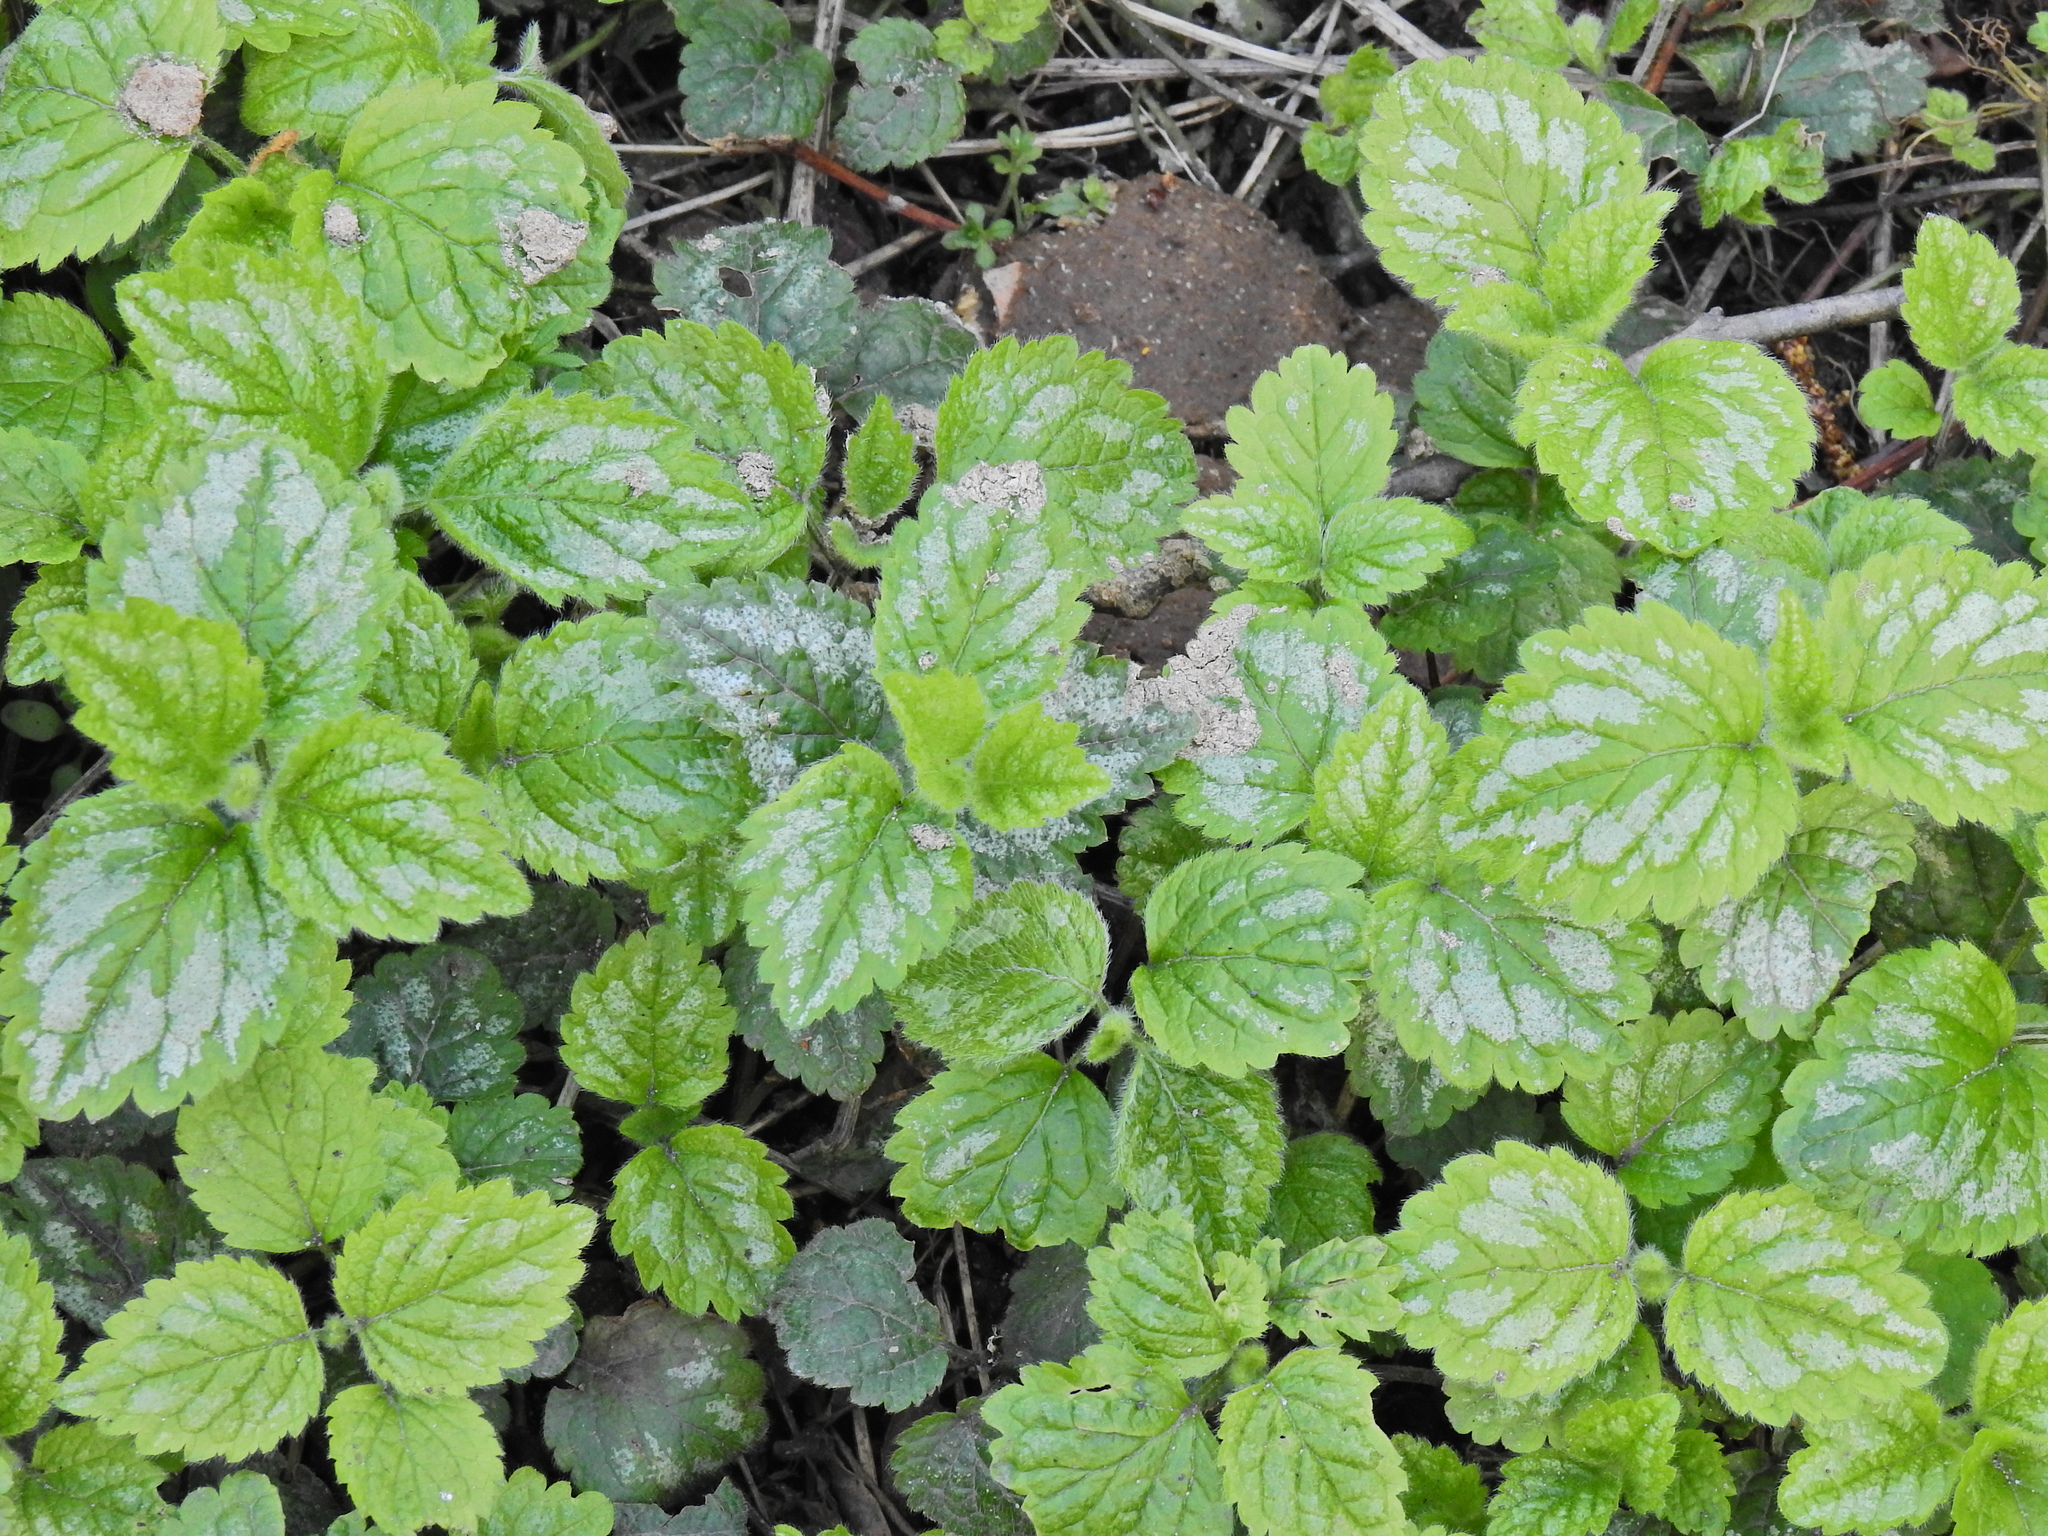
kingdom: Plantae
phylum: Tracheophyta
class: Magnoliopsida
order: Lamiales
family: Lamiaceae
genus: Lamium
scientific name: Lamium galeobdolon
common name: Yellow archangel
